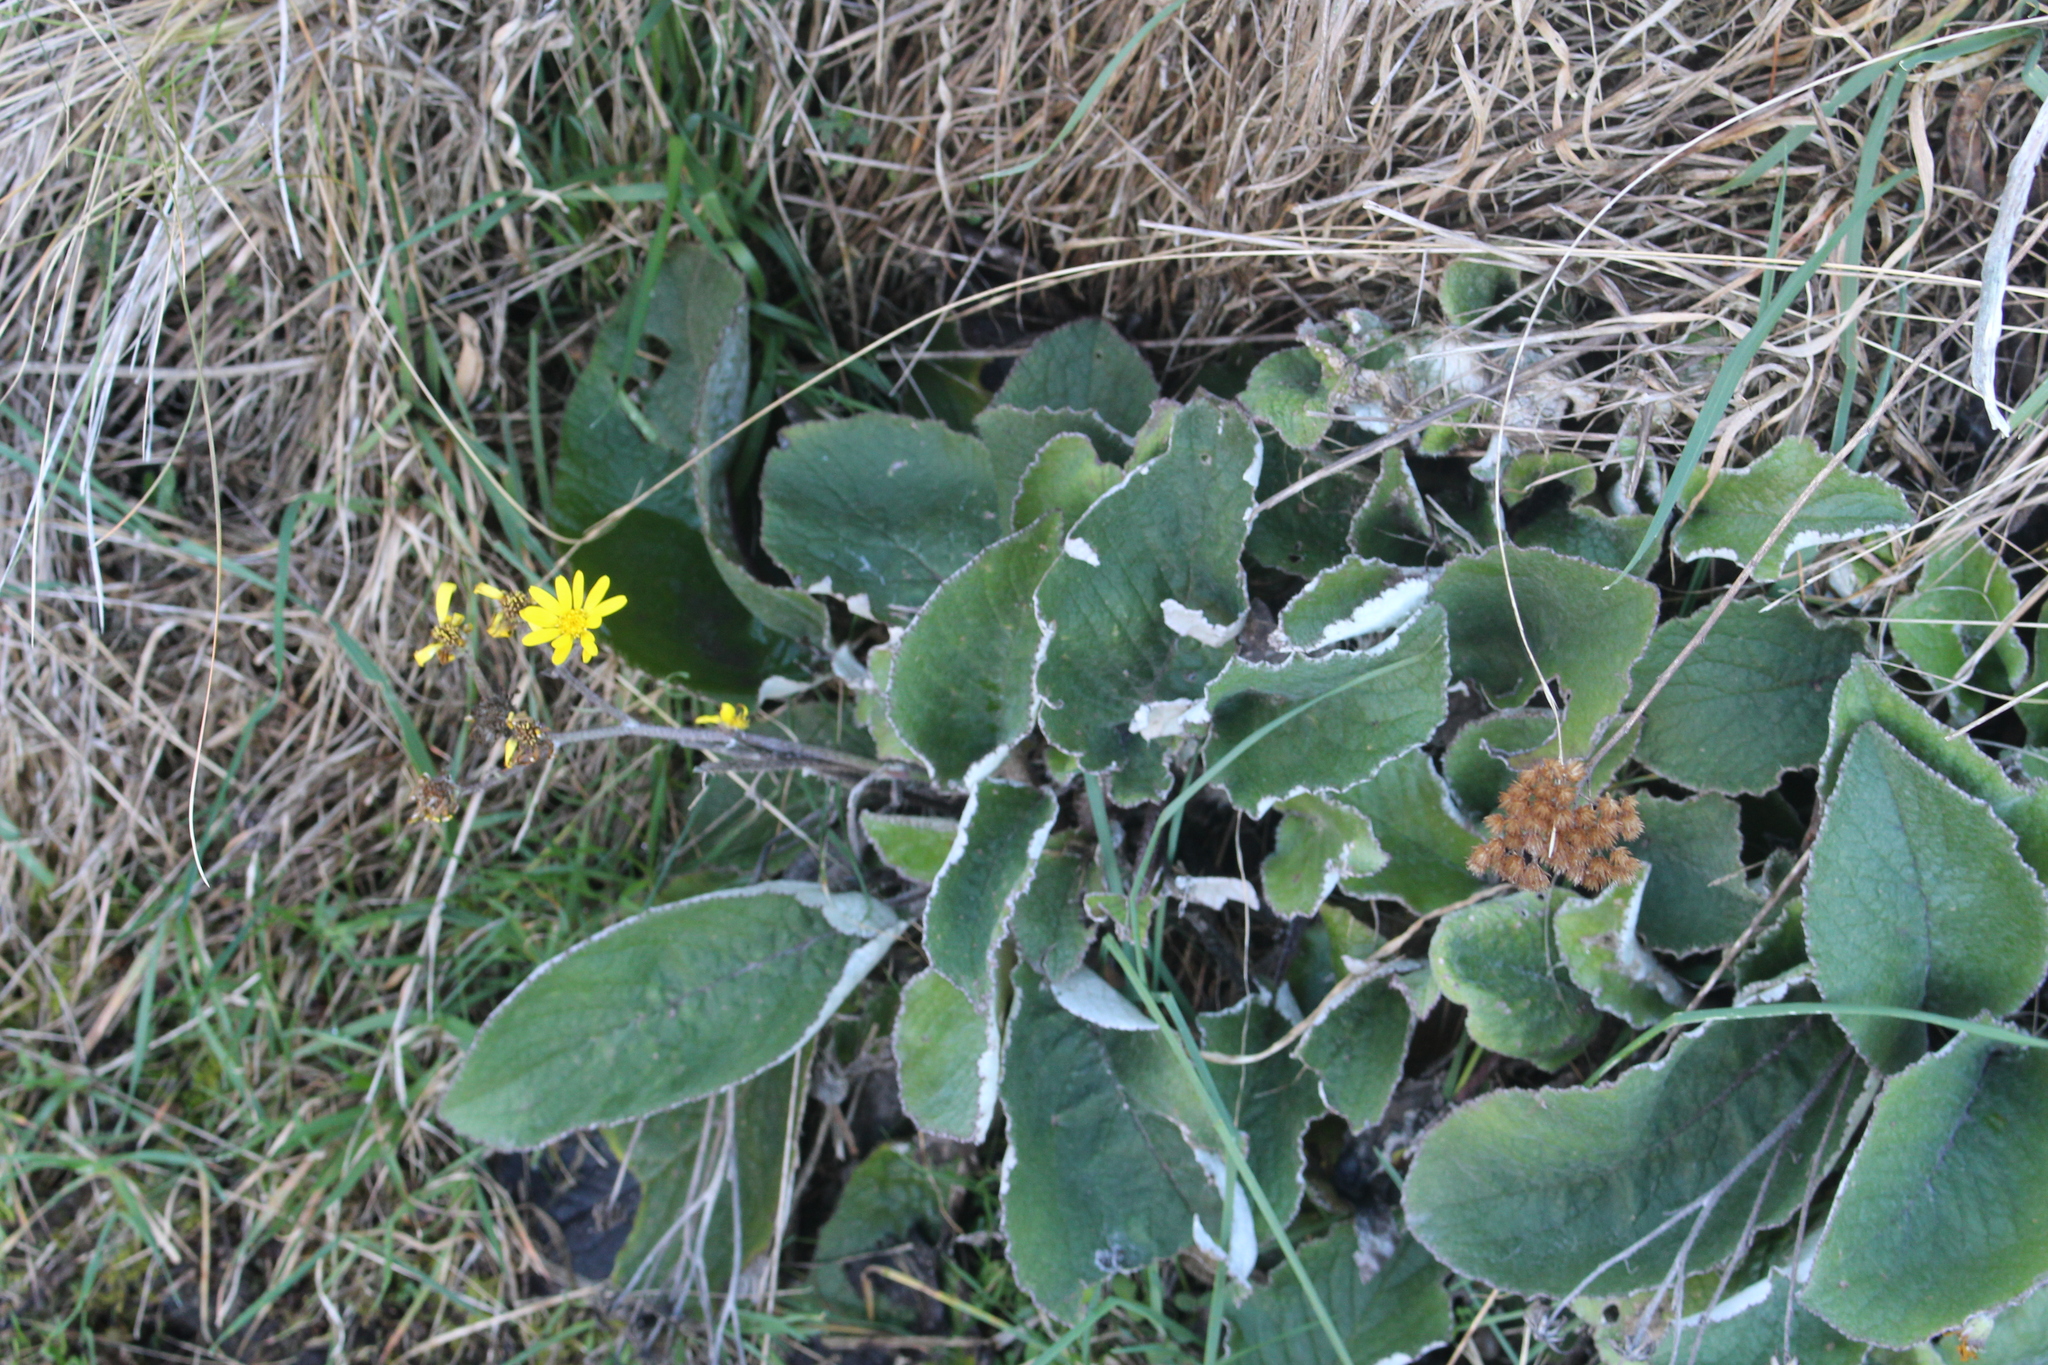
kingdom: Plantae
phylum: Tracheophyta
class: Magnoliopsida
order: Asterales
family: Asteraceae
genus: Brachyglottis
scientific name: Brachyglottis lagopus
